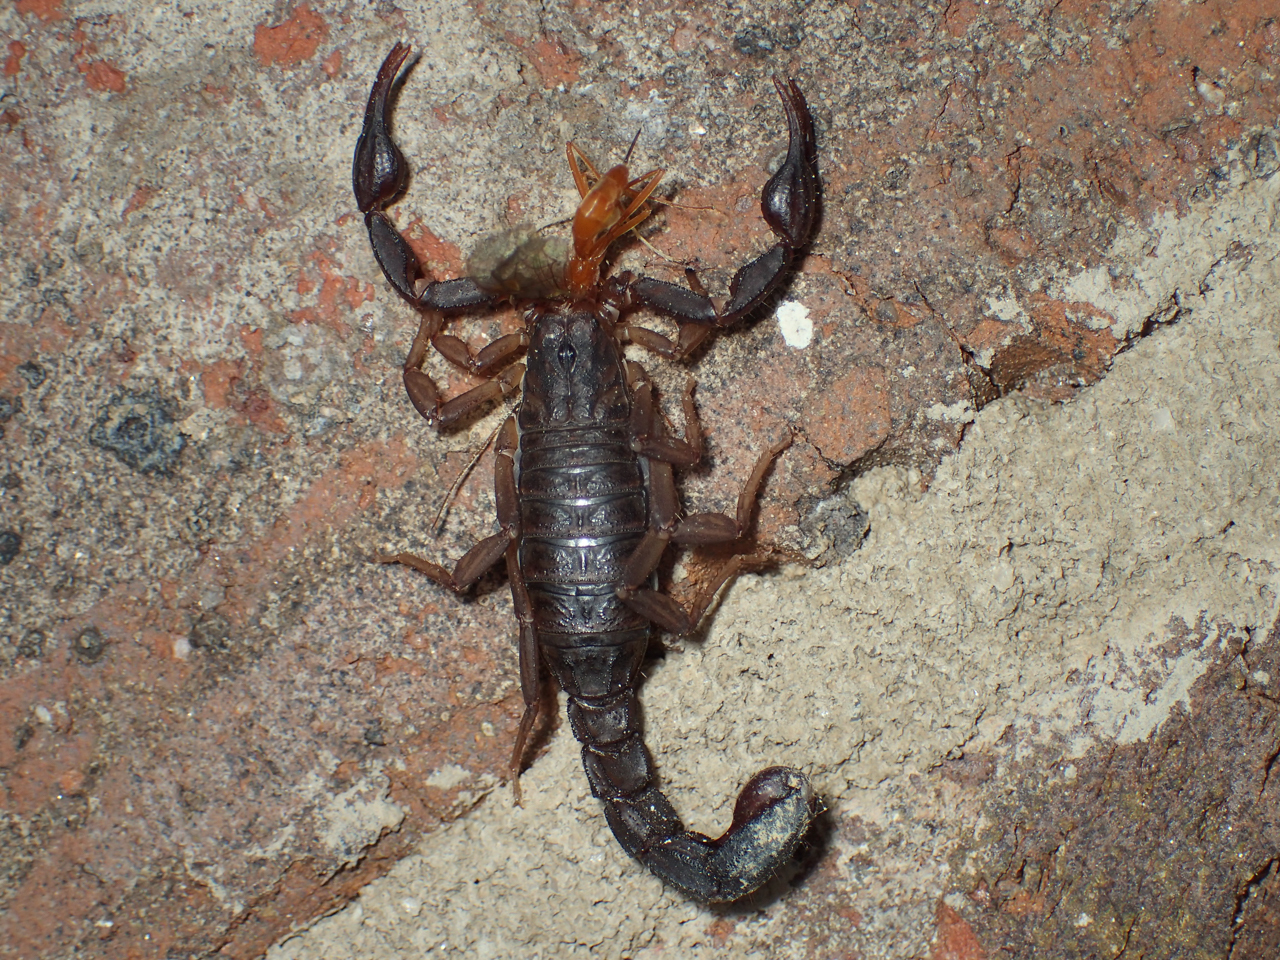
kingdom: Animalia
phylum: Arthropoda
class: Arachnida
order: Scorpiones
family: Vaejovidae
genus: Vaejovis
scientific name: Vaejovis carolinianus
